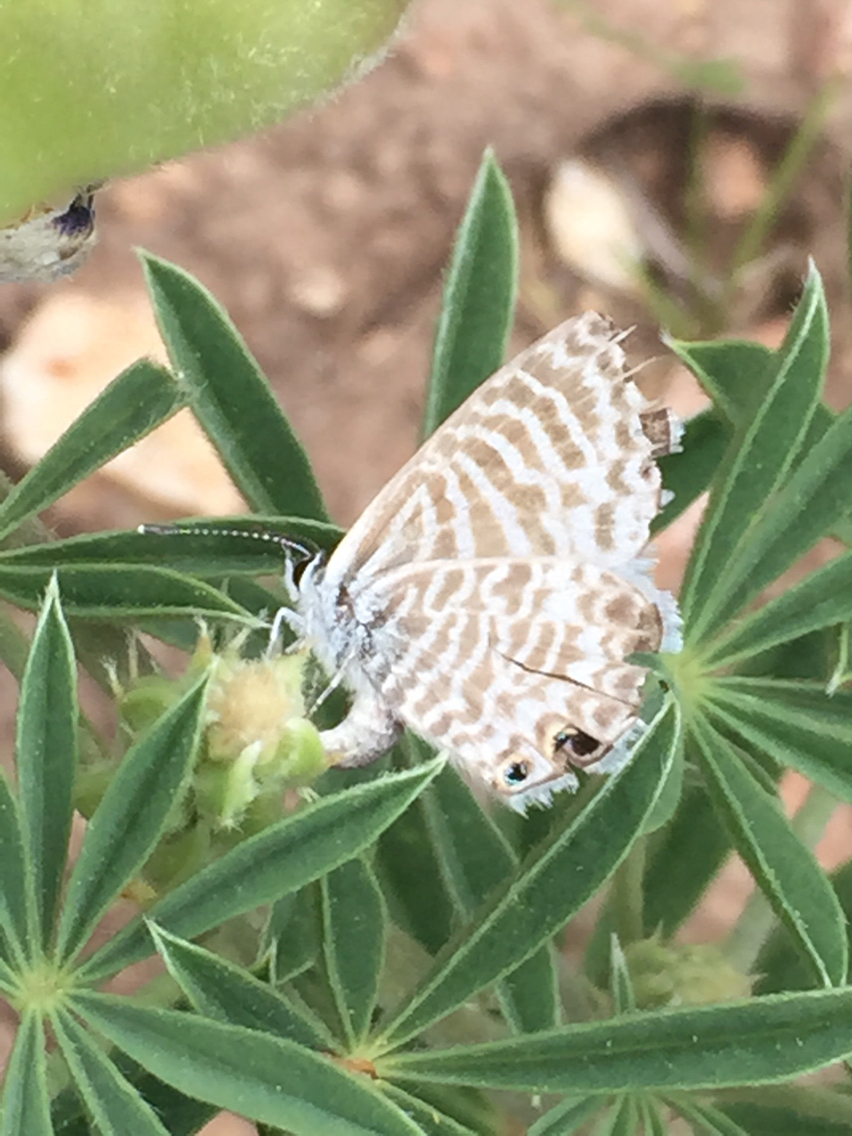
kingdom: Animalia
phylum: Arthropoda
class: Insecta
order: Lepidoptera
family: Lycaenidae
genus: Leptotes
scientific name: Leptotes marina
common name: Marine blue
